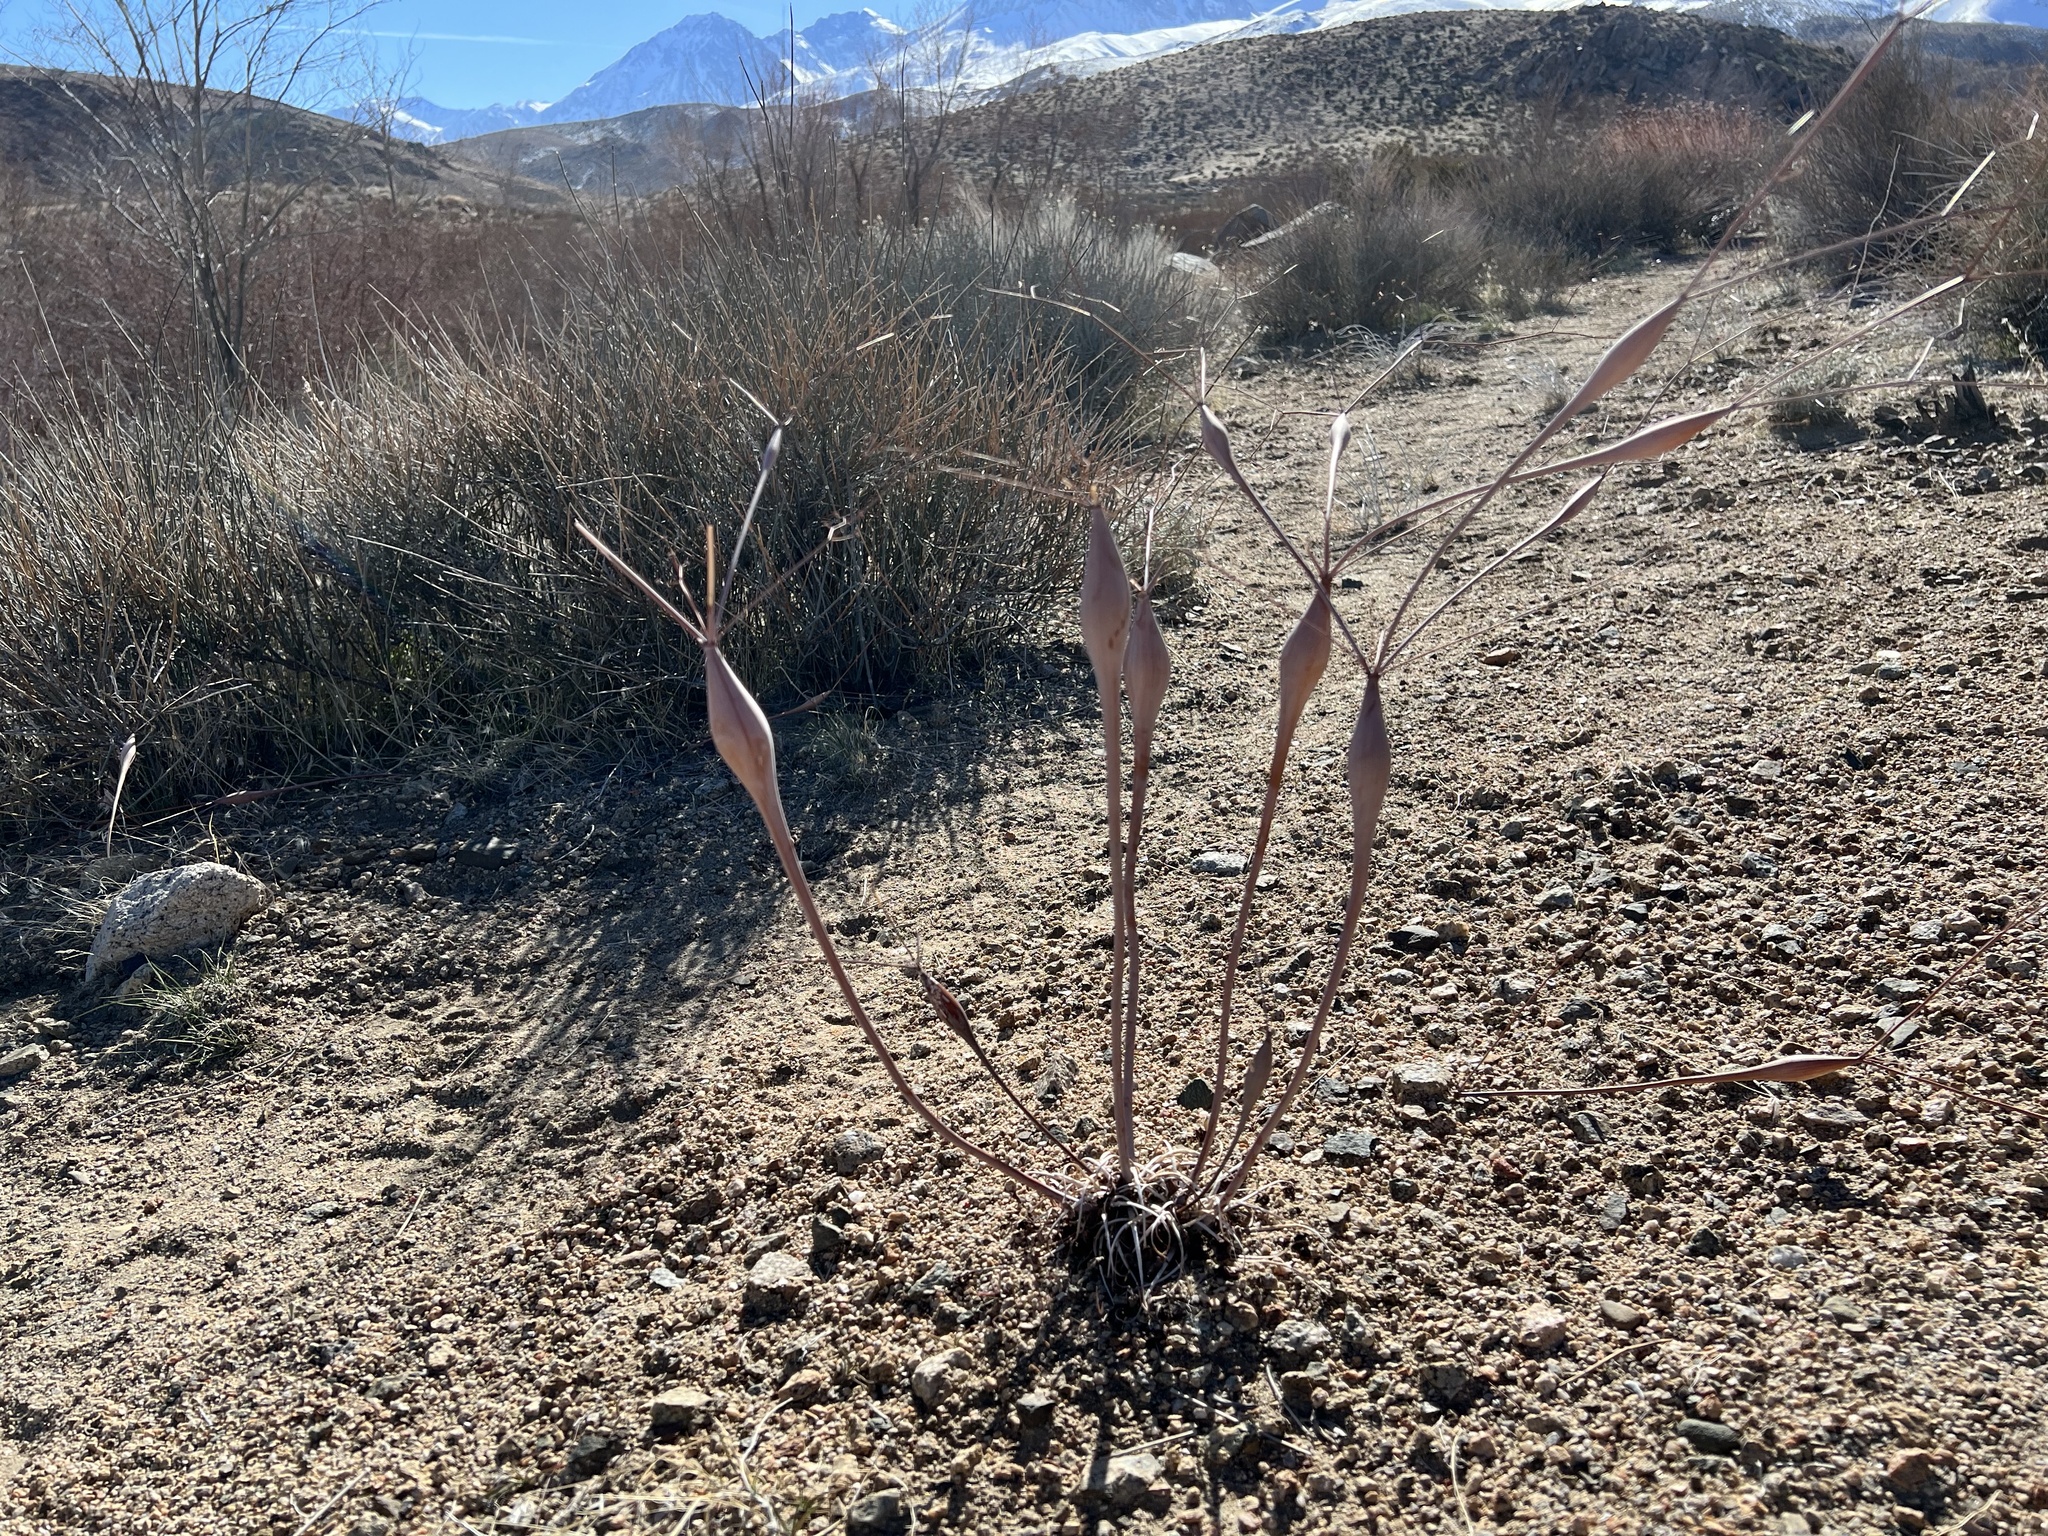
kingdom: Plantae
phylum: Tracheophyta
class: Magnoliopsida
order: Caryophyllales
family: Polygonaceae
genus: Eriogonum
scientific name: Eriogonum inflatum
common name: Desert trumpet
